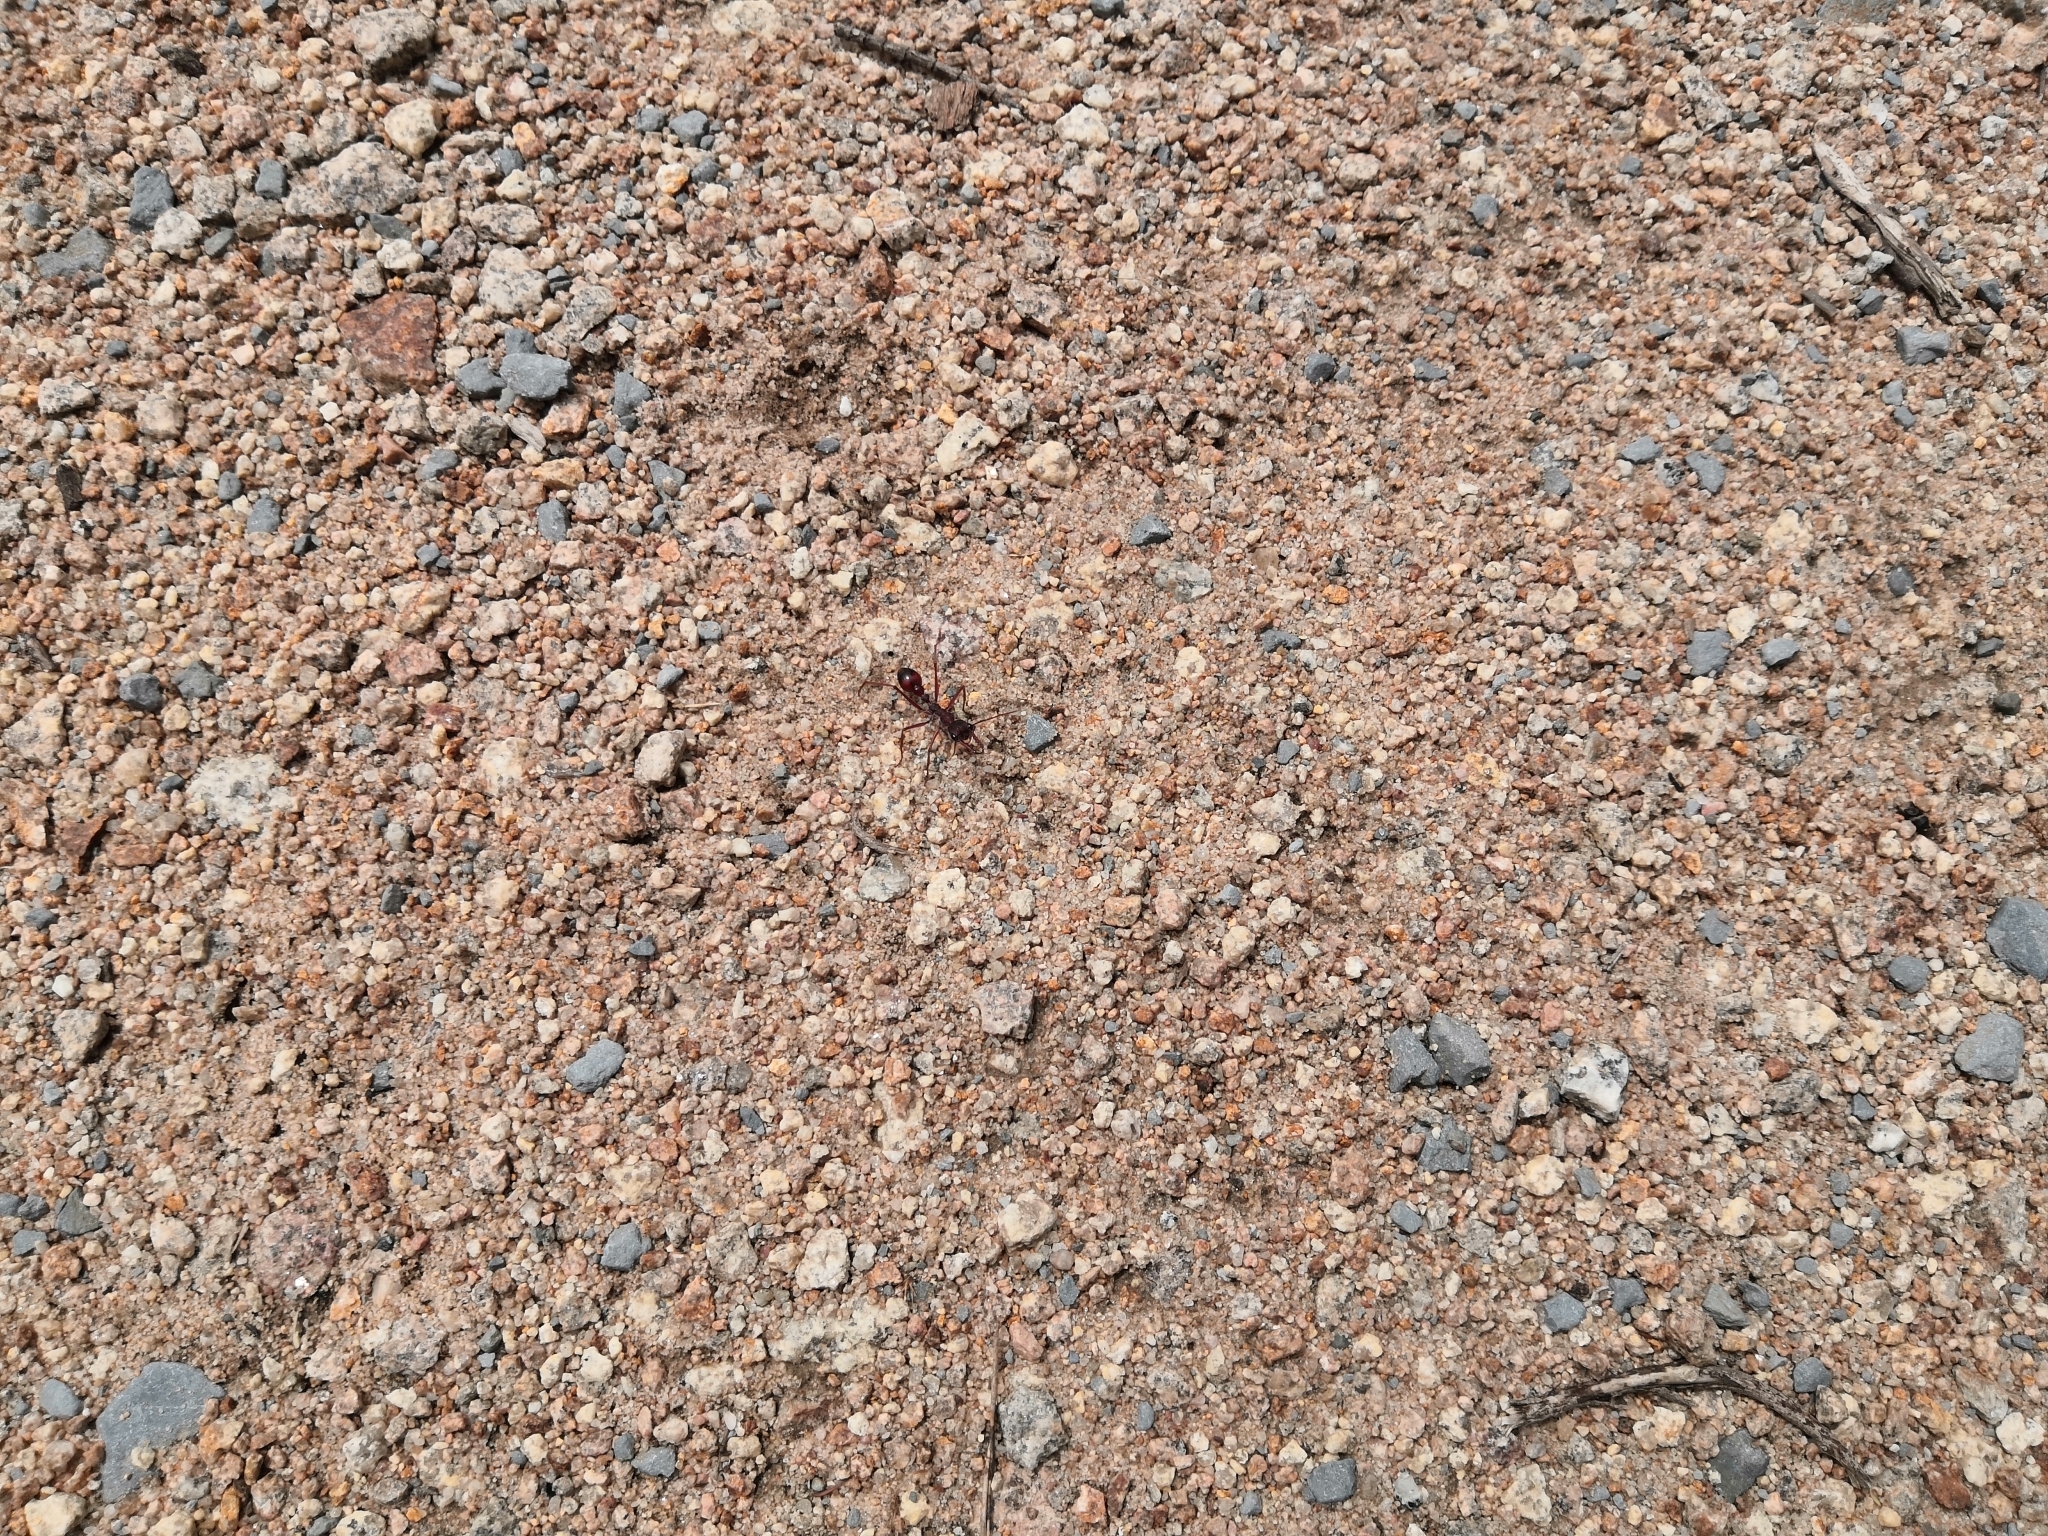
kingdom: Animalia
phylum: Arthropoda
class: Insecta
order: Hymenoptera
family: Formicidae
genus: Myrmecia
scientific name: Myrmecia nigriscapa
